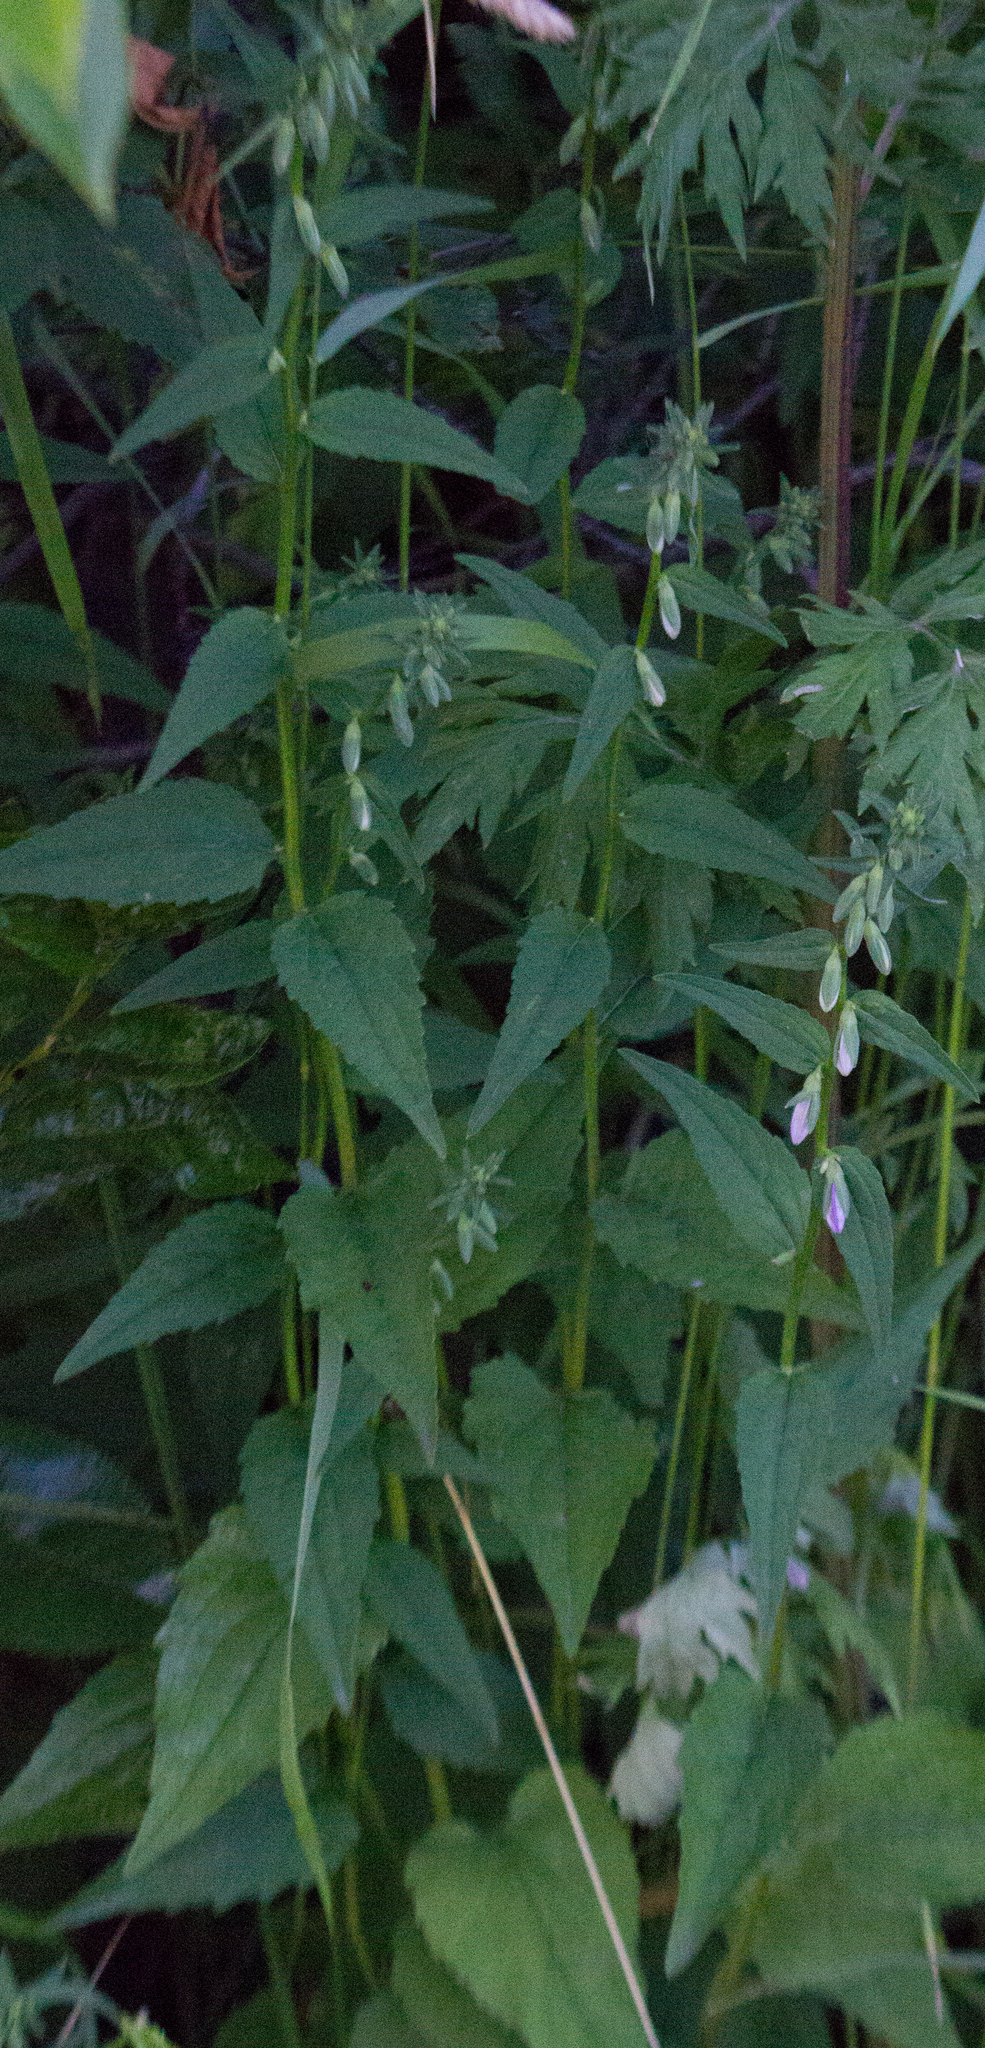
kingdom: Plantae
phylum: Tracheophyta
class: Magnoliopsida
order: Asterales
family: Campanulaceae
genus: Campanula
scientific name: Campanula rapunculoides
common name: Creeping bellflower
